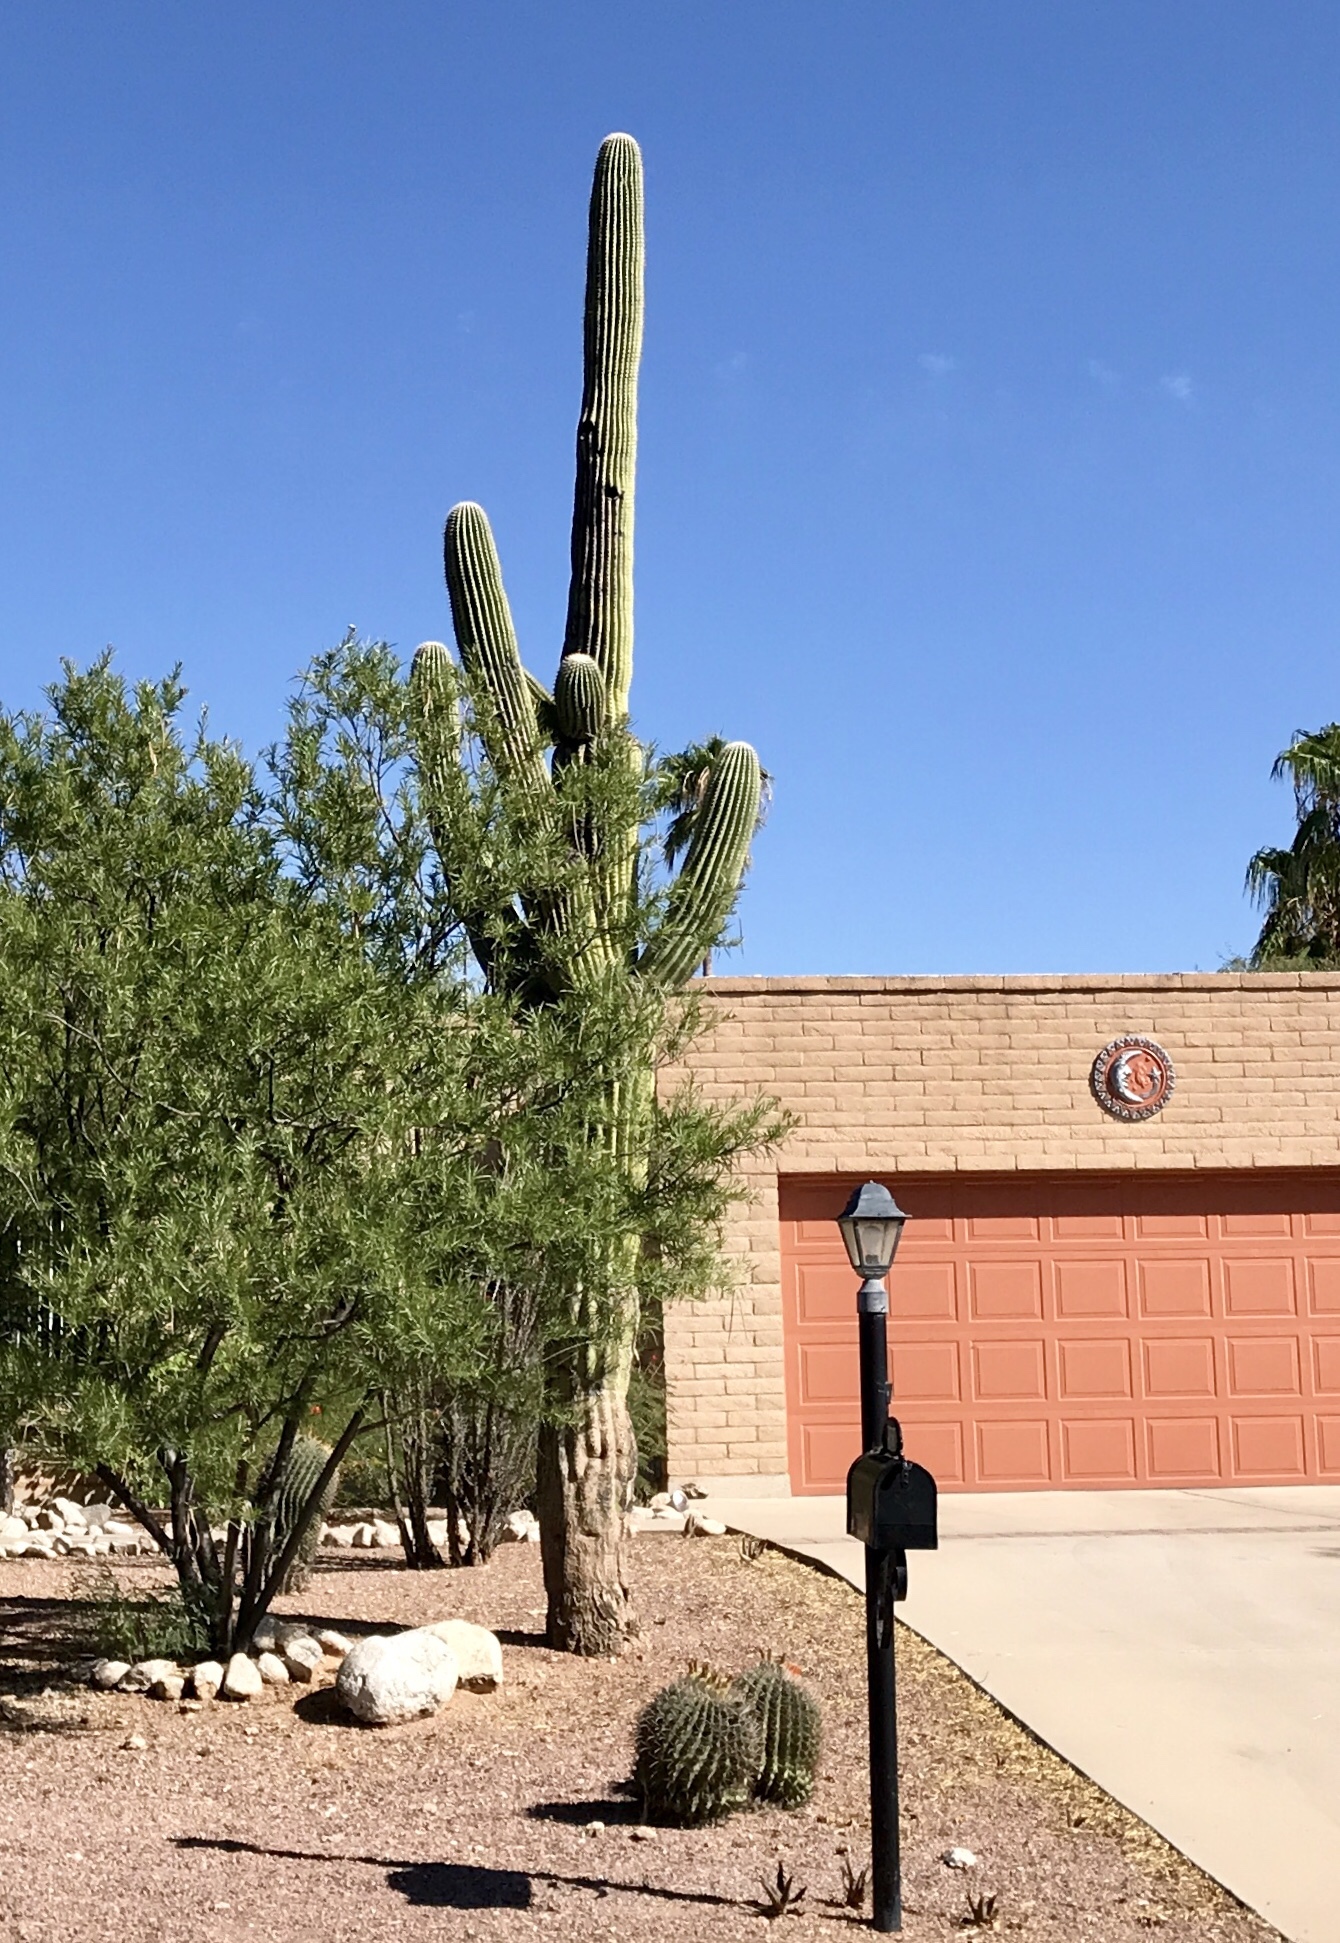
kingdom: Plantae
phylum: Tracheophyta
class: Magnoliopsida
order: Caryophyllales
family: Cactaceae
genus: Carnegiea
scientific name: Carnegiea gigantea
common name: Saguaro
